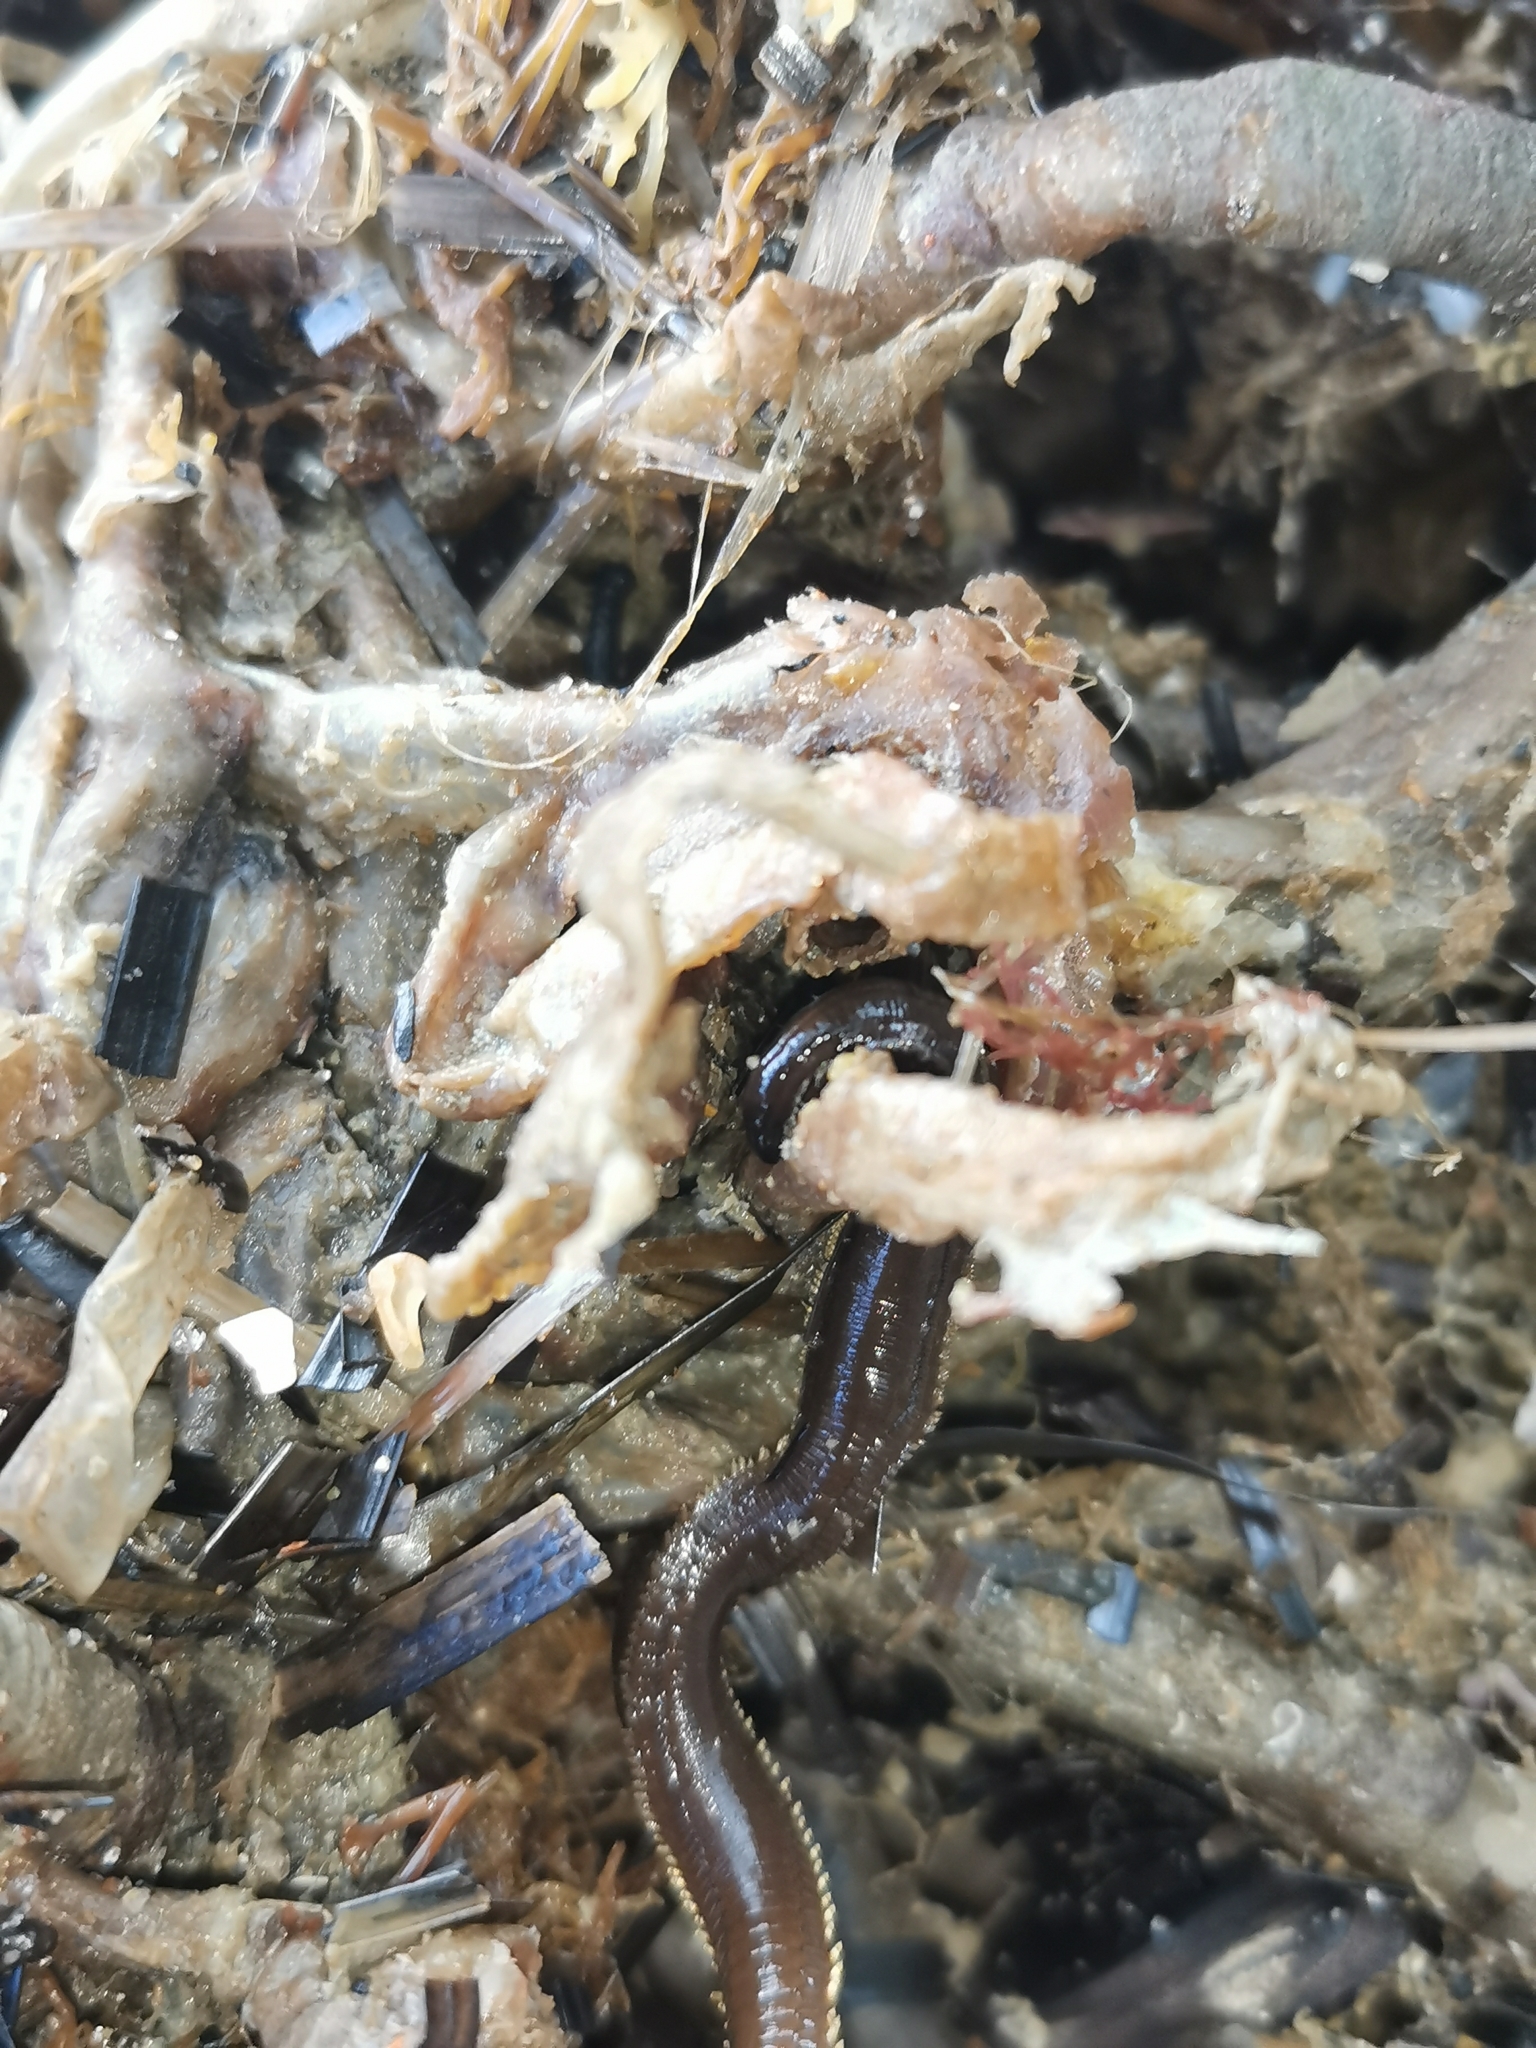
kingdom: Animalia
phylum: Annelida
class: Polychaeta
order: Sabellida
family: Sabellidae
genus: Sabella
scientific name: Sabella spallanzanii
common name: Feather duster worm
